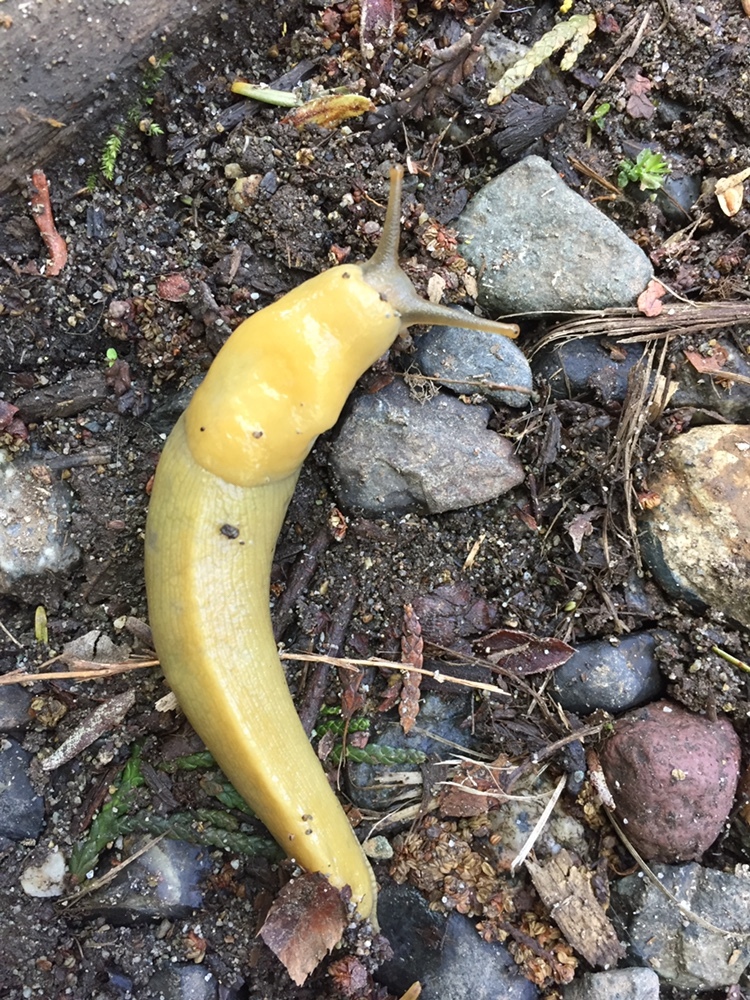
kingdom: Animalia
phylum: Mollusca
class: Gastropoda
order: Stylommatophora
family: Ariolimacidae
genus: Ariolimax
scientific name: Ariolimax columbianus
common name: Pacific banana slug
